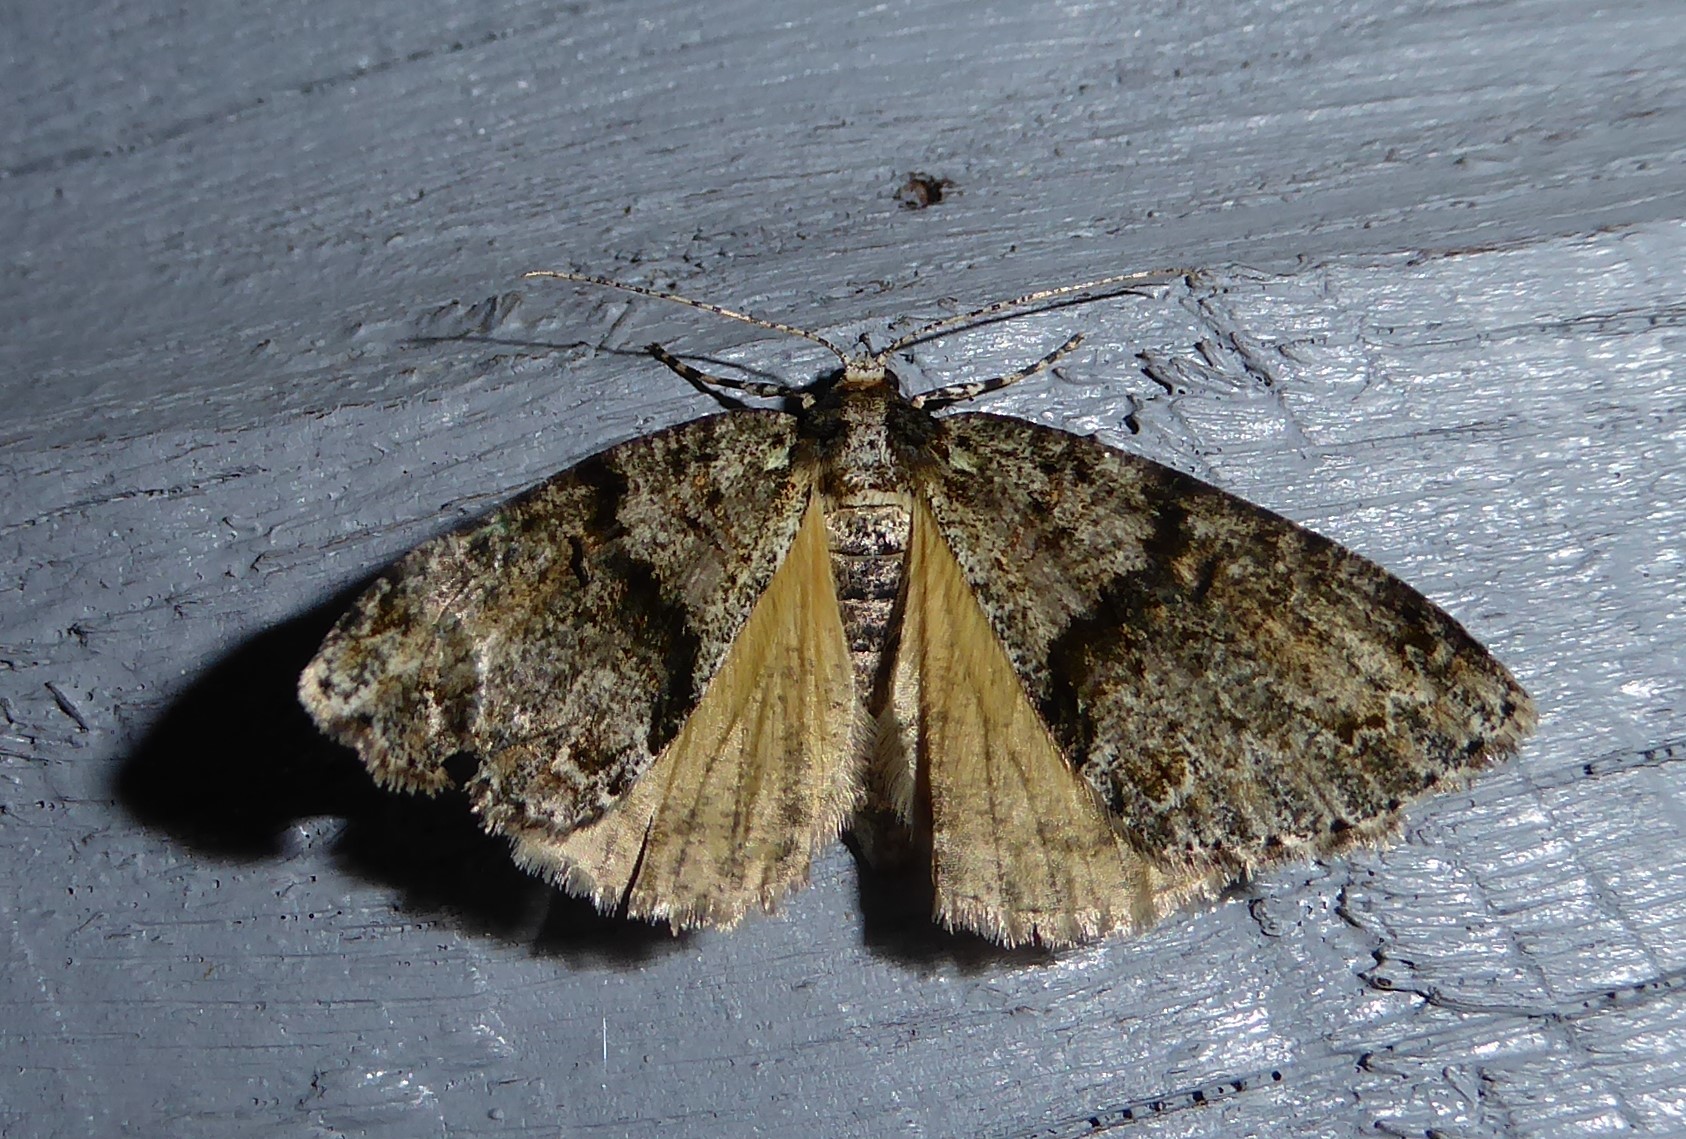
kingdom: Animalia
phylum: Arthropoda
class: Insecta
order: Lepidoptera
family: Geometridae
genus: Pseudocoremia
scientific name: Pseudocoremia suavis
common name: Common forest looper
